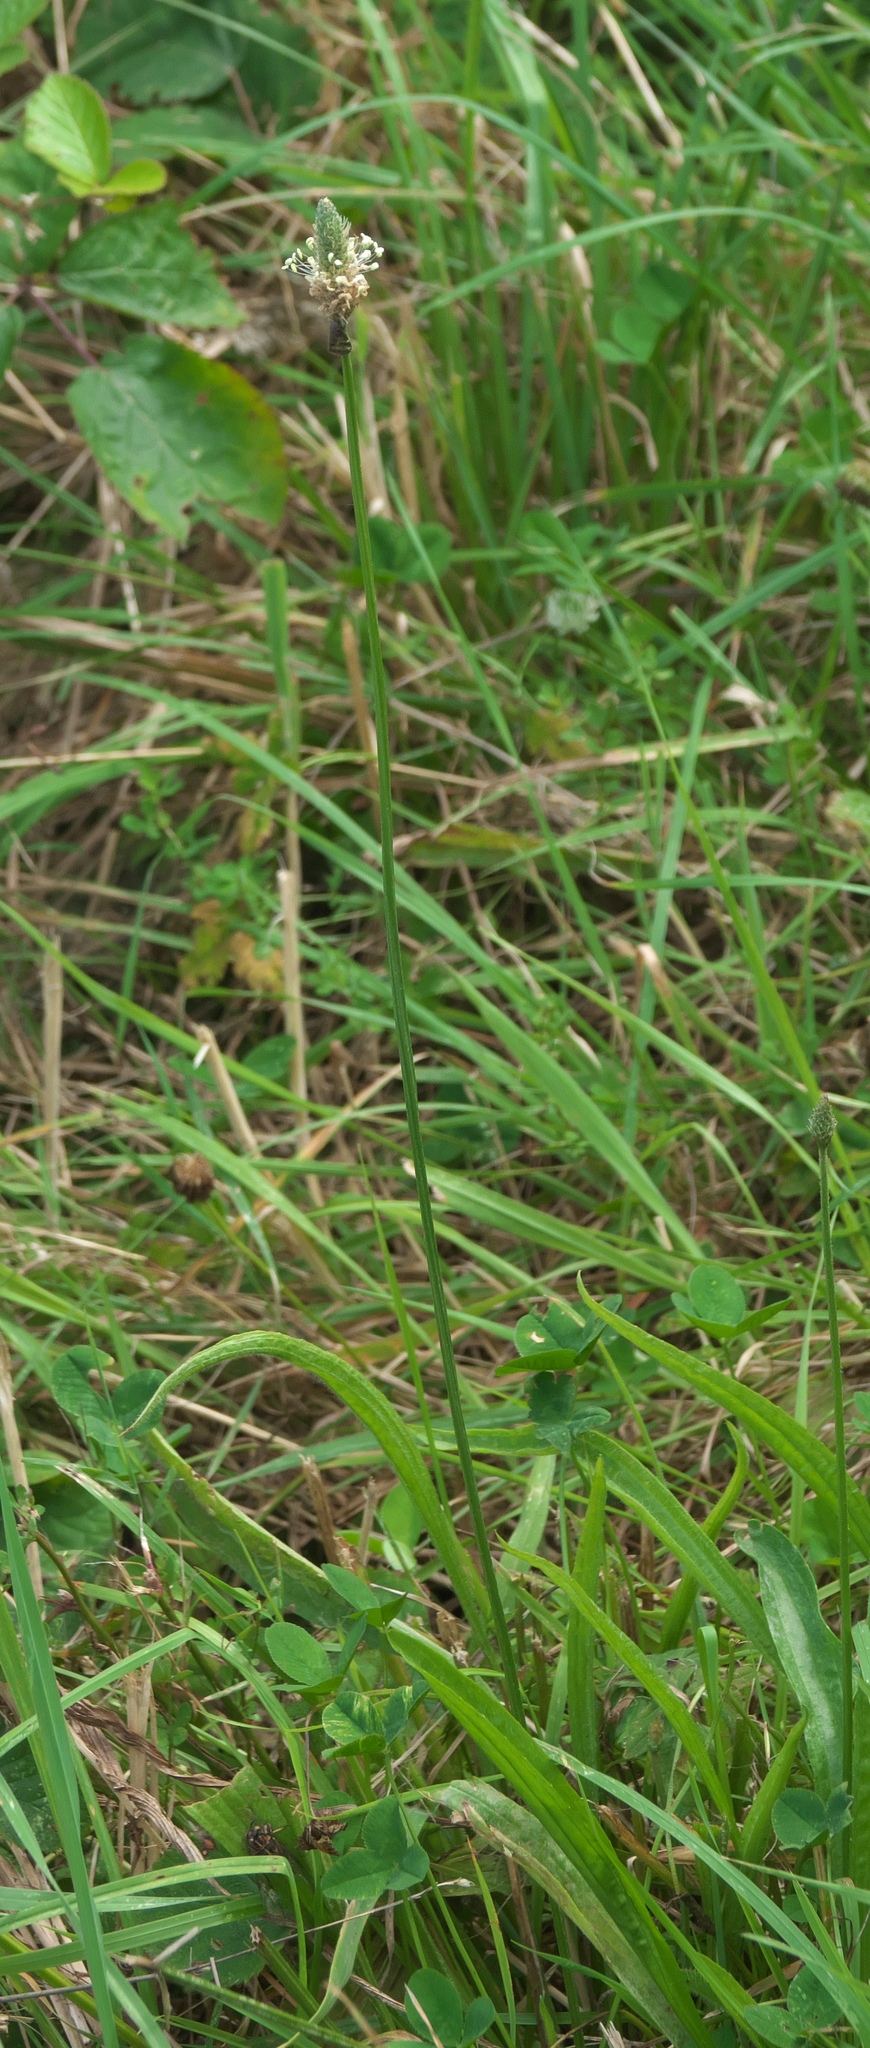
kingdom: Plantae
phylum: Tracheophyta
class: Magnoliopsida
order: Lamiales
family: Plantaginaceae
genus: Plantago
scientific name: Plantago lanceolata
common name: Ribwort plantain
